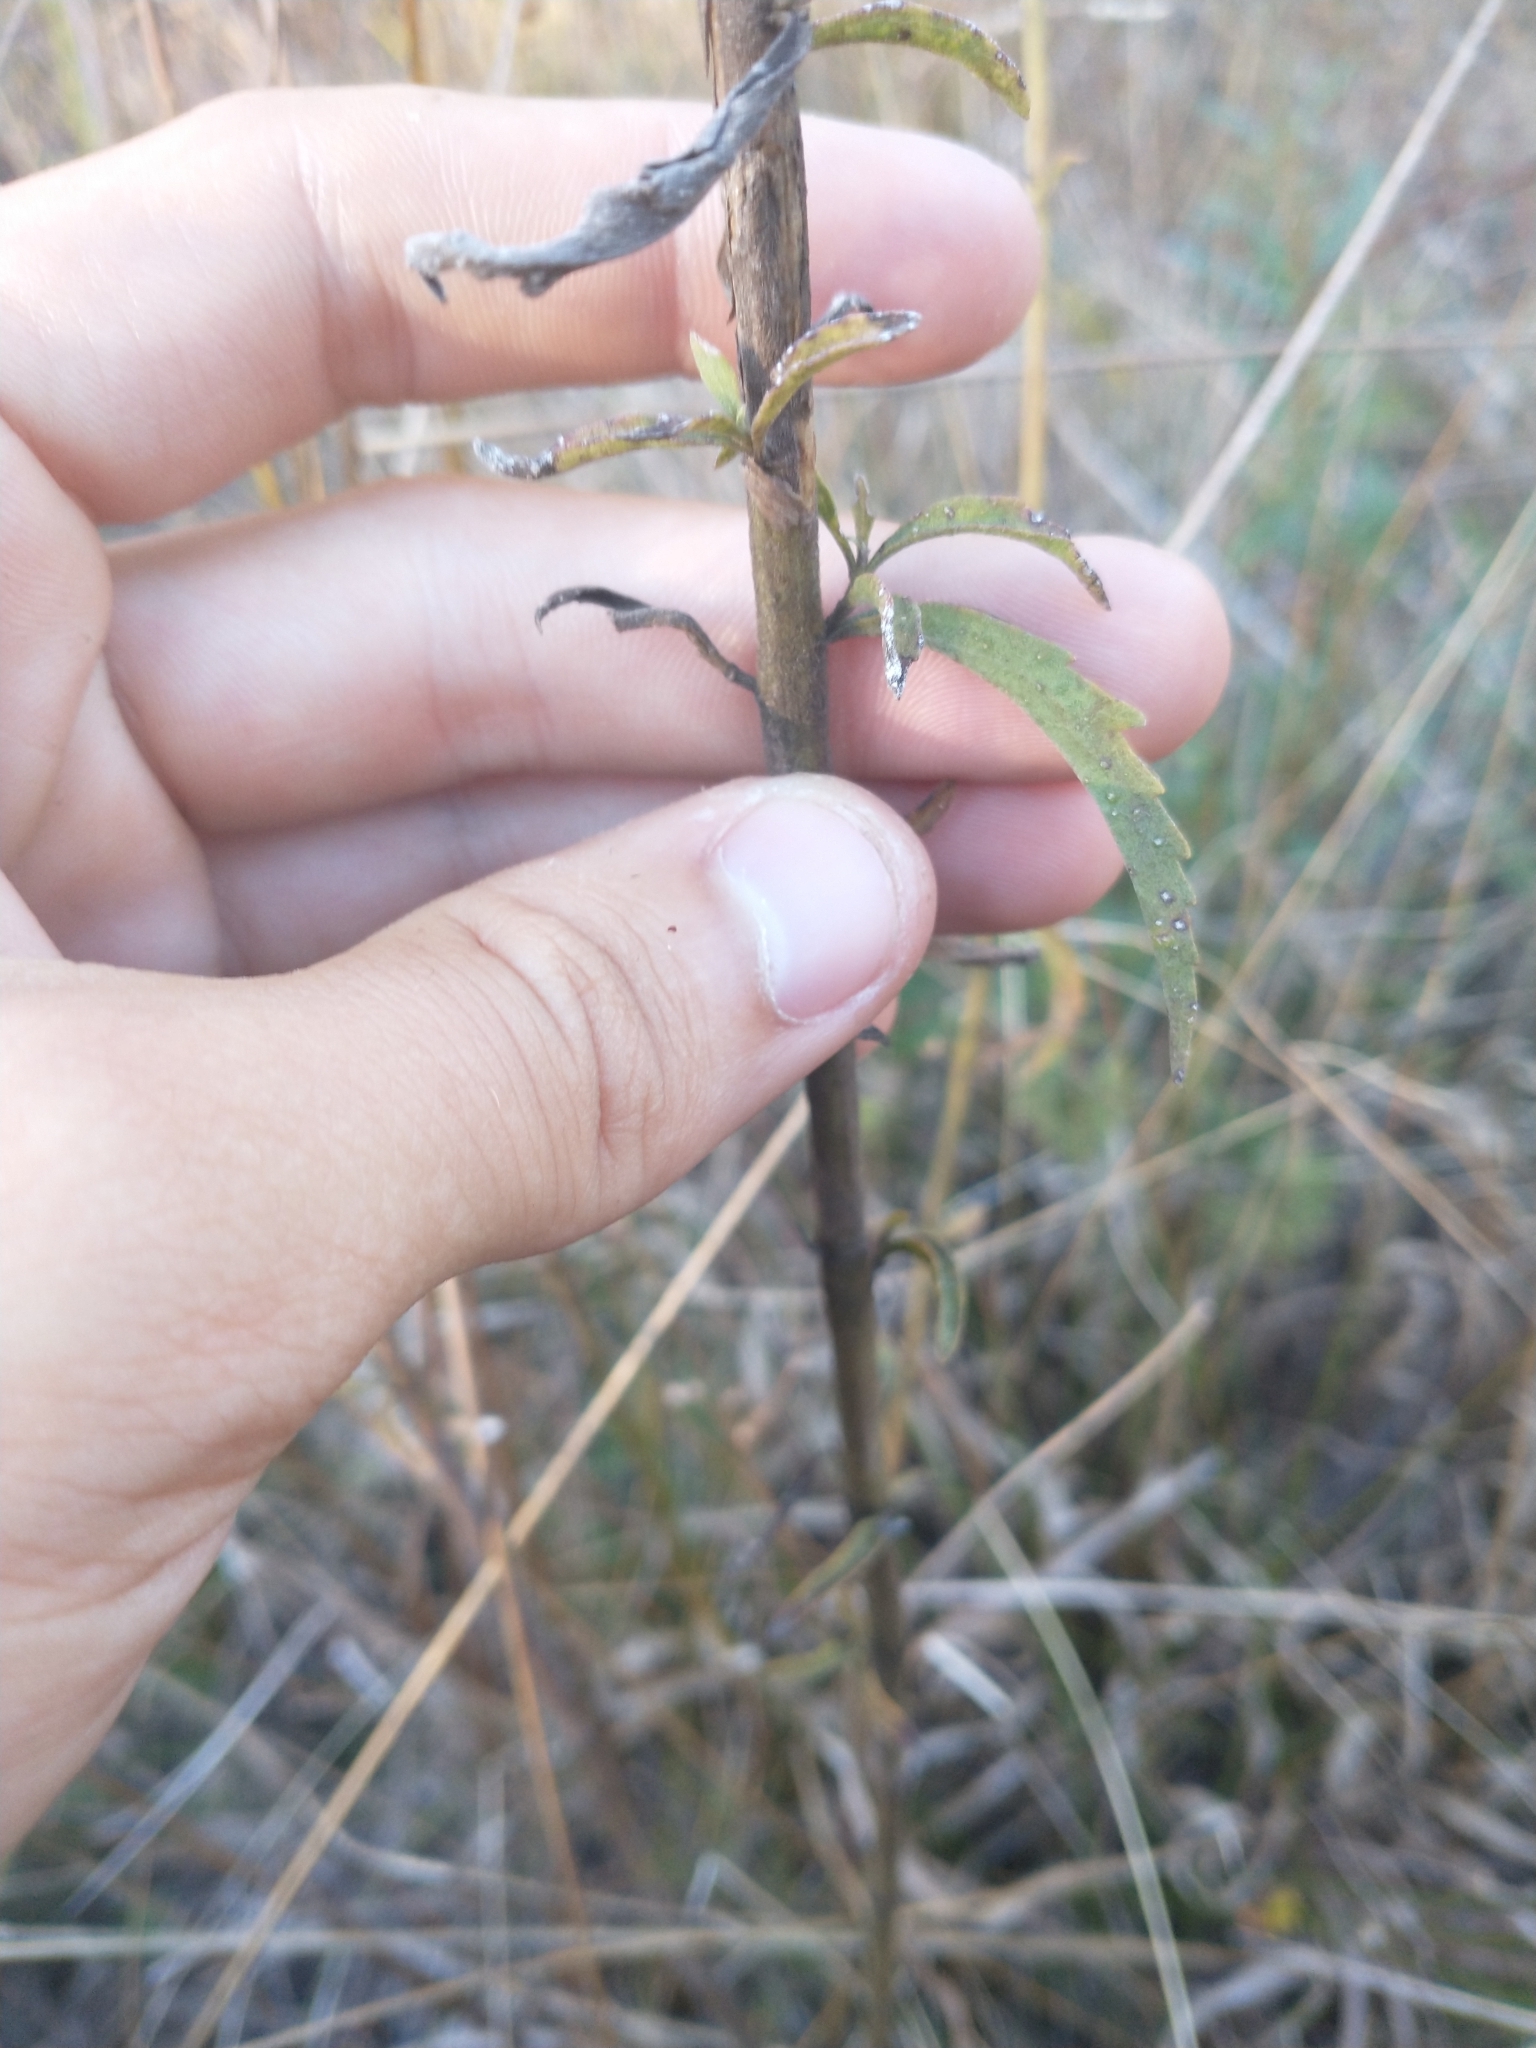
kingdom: Plantae
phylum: Tracheophyta
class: Magnoliopsida
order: Asterales
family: Asteraceae
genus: Eupatorium
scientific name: Eupatorium mohrii
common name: Mohr's thoroughwort
